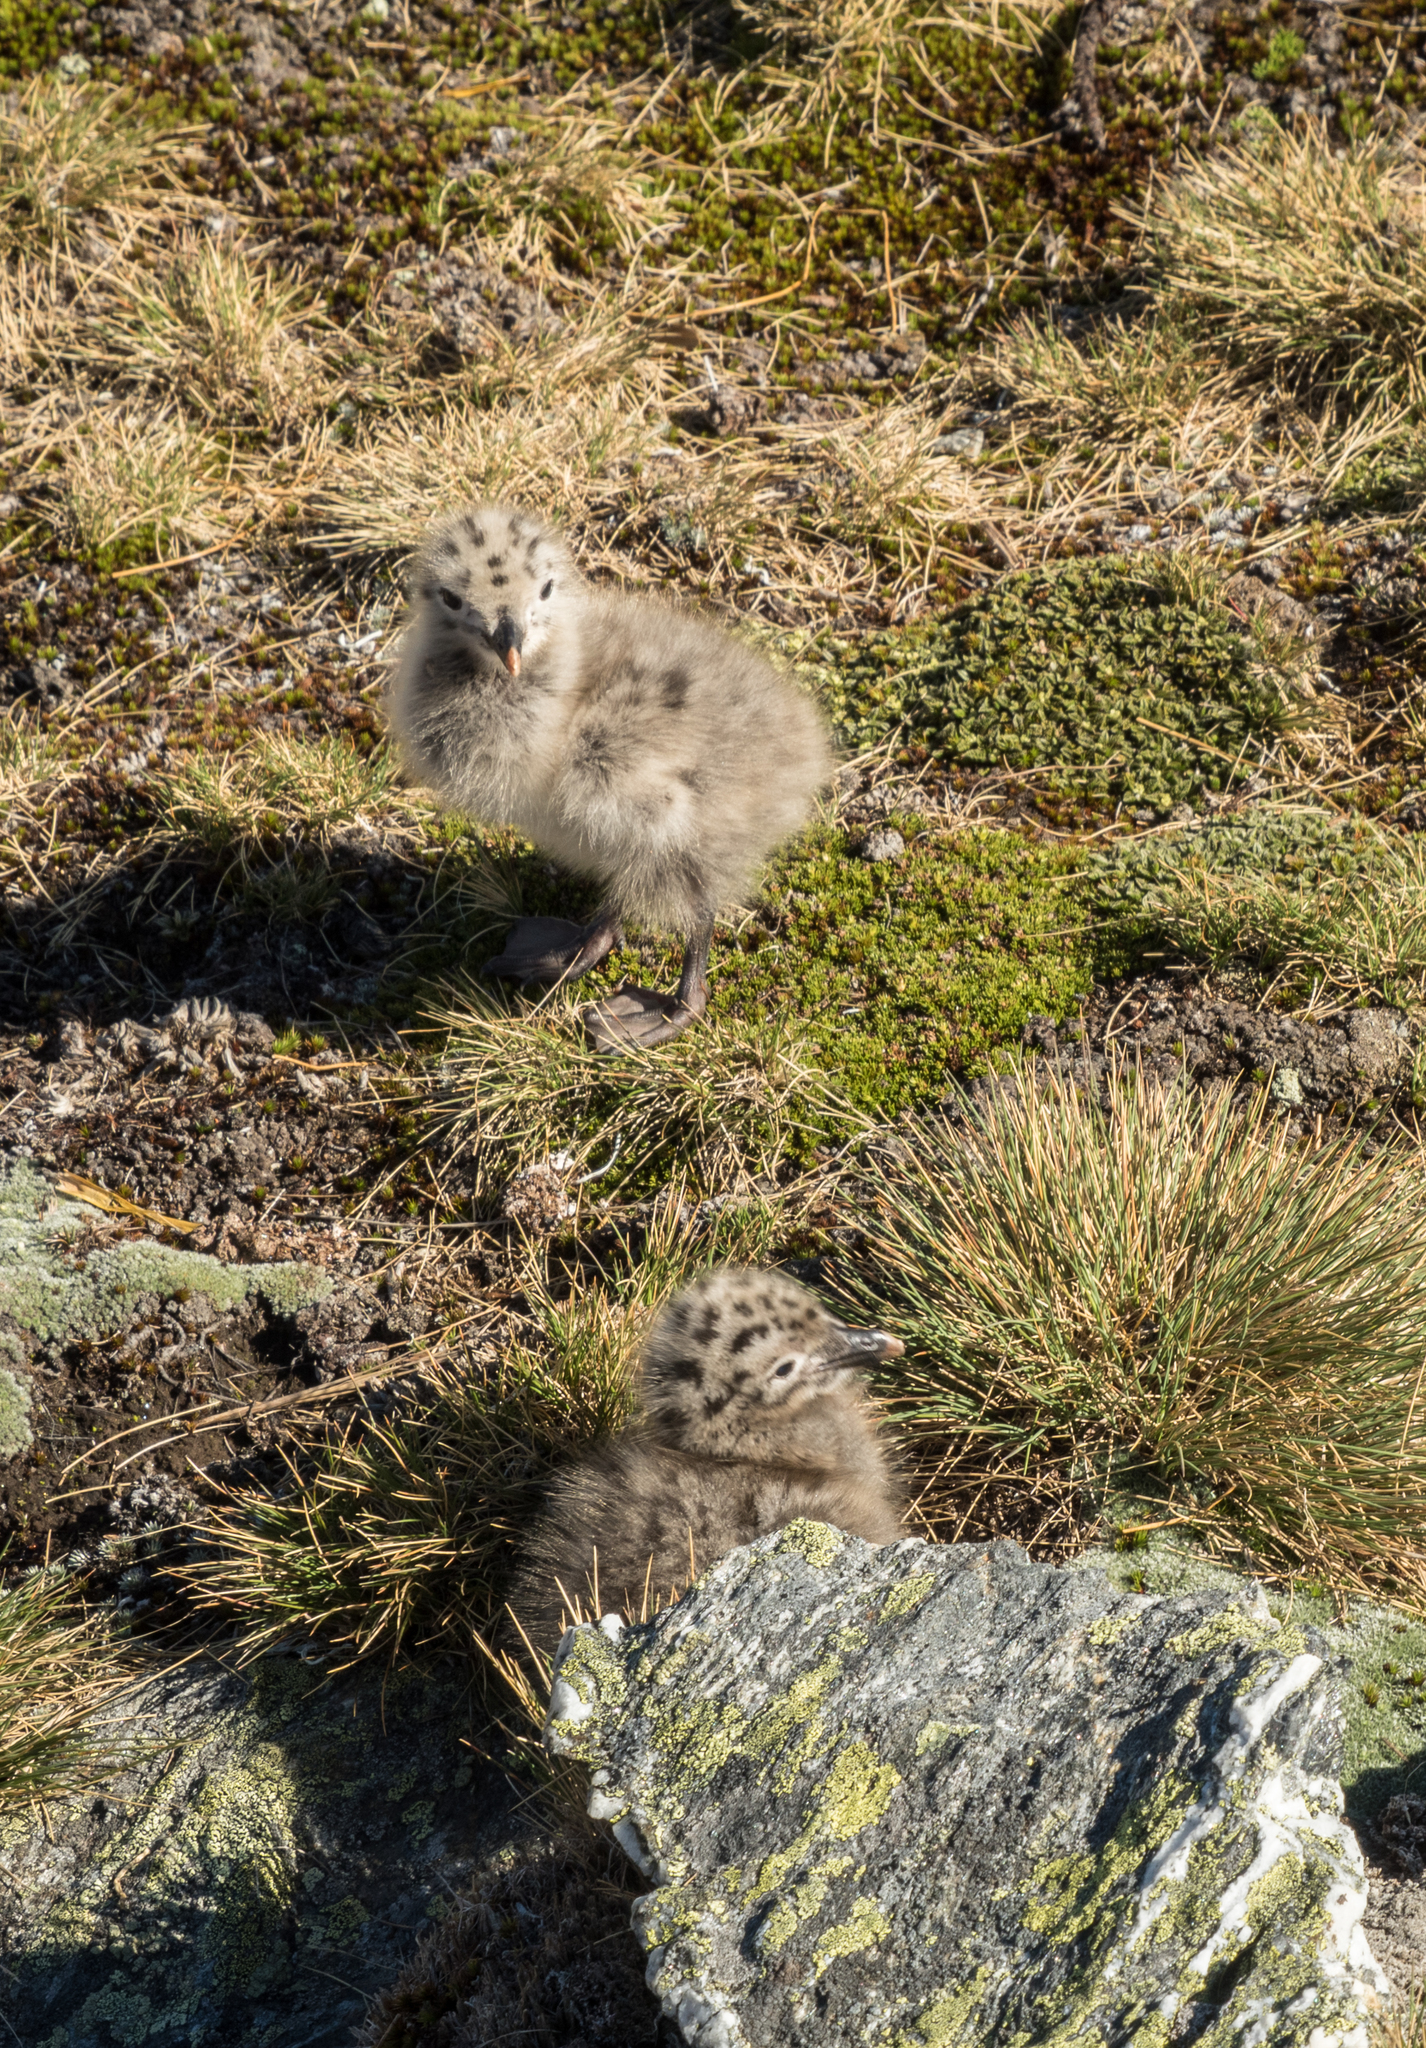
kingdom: Animalia
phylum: Chordata
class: Aves
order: Charadriiformes
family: Laridae
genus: Larus
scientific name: Larus dominicanus
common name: Kelp gull
